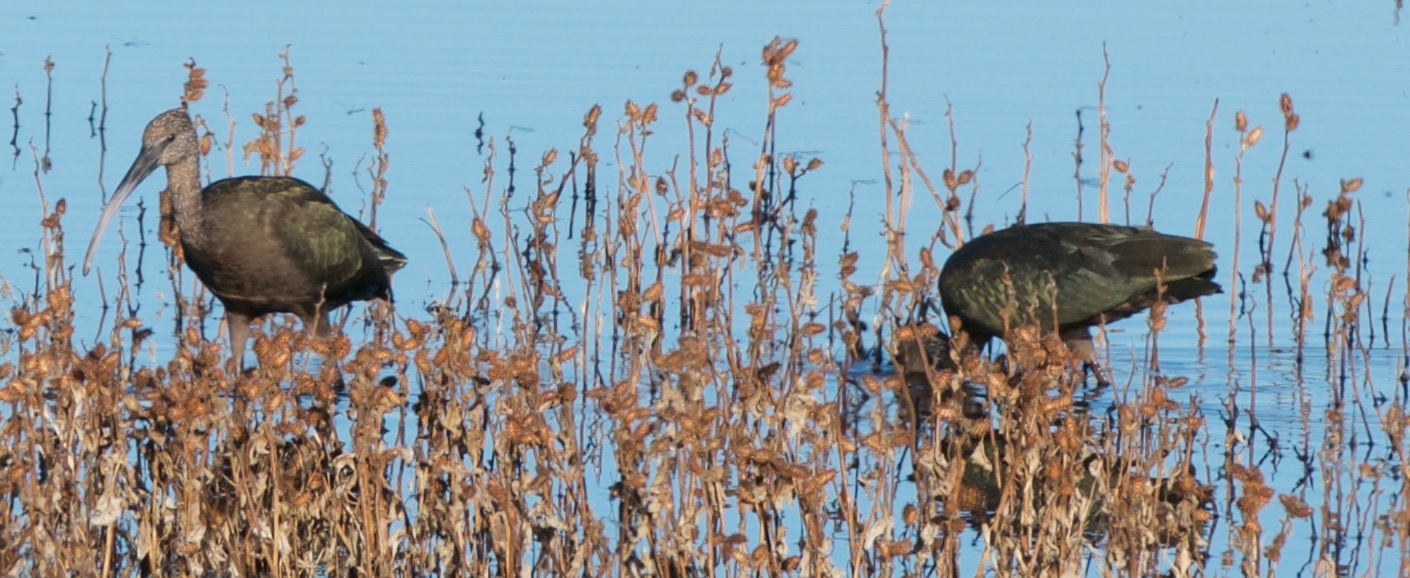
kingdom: Animalia
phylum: Chordata
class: Aves
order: Pelecaniformes
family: Threskiornithidae
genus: Plegadis
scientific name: Plegadis chihi
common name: White-faced ibis
